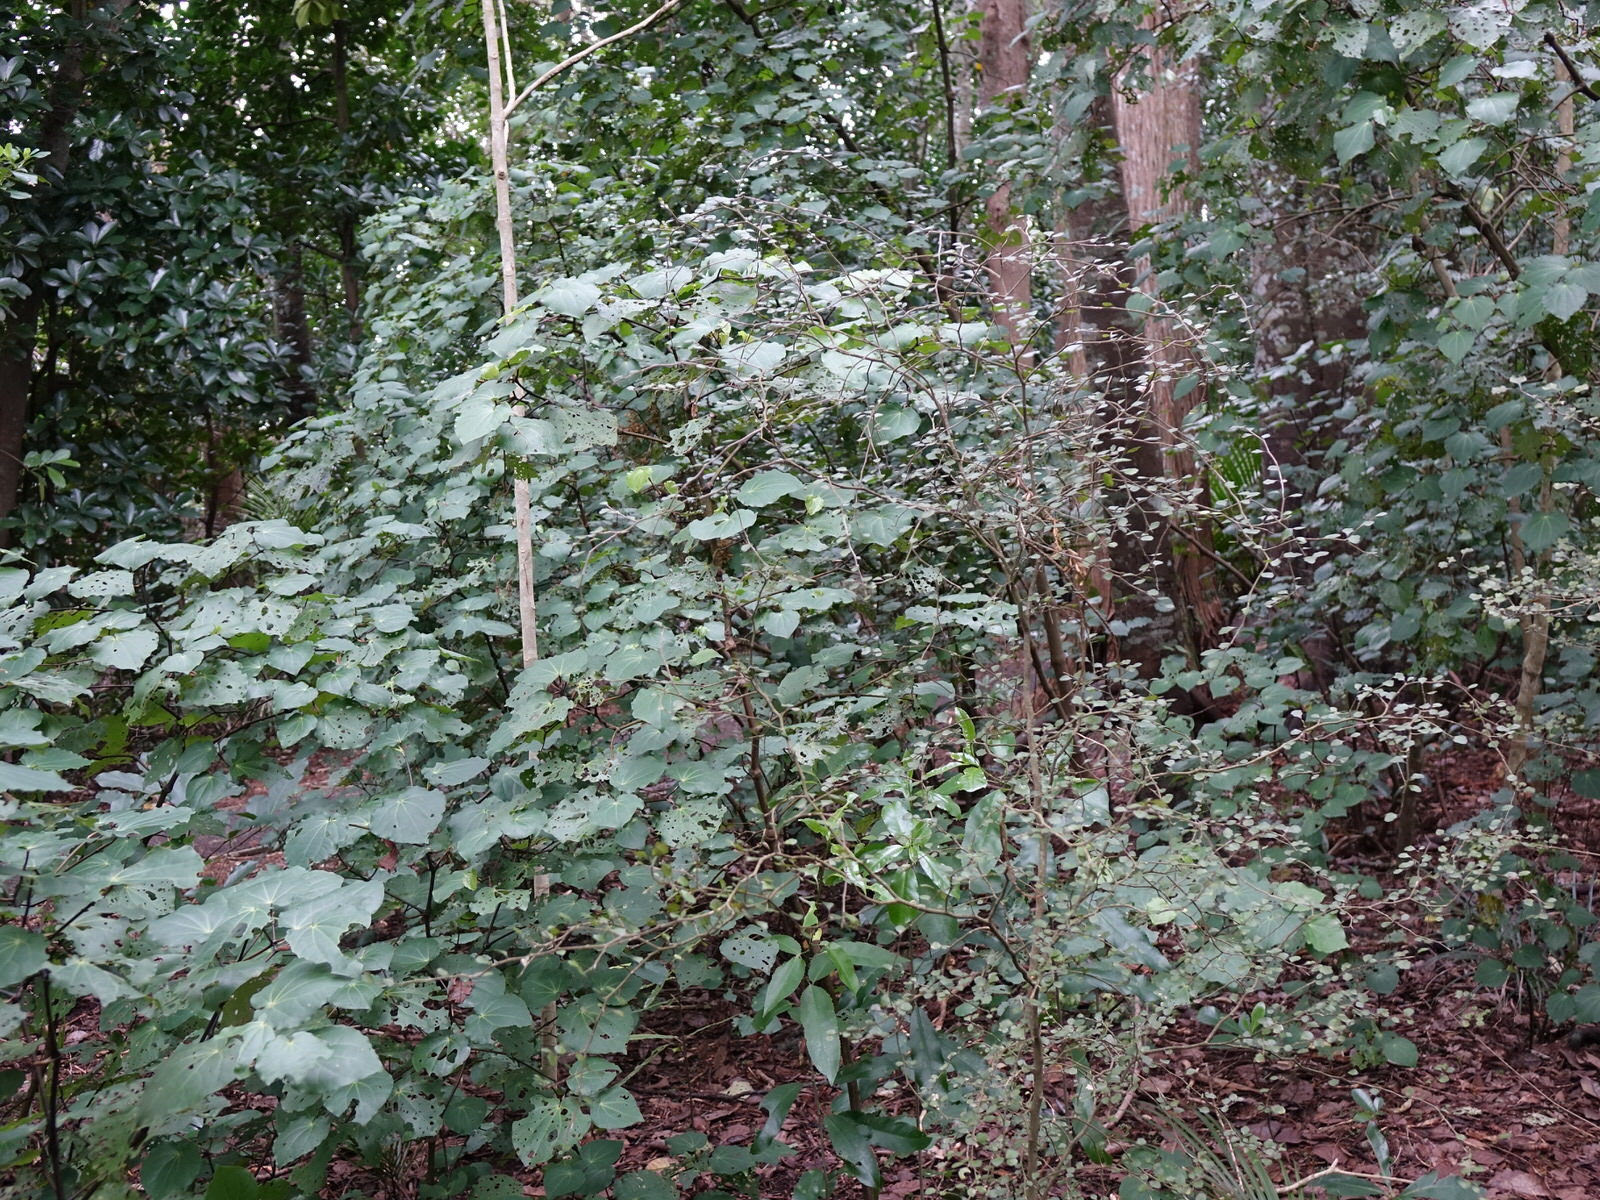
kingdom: Plantae
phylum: Tracheophyta
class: Magnoliopsida
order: Malpighiales
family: Violaceae
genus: Melicytus
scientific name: Melicytus micranthus
